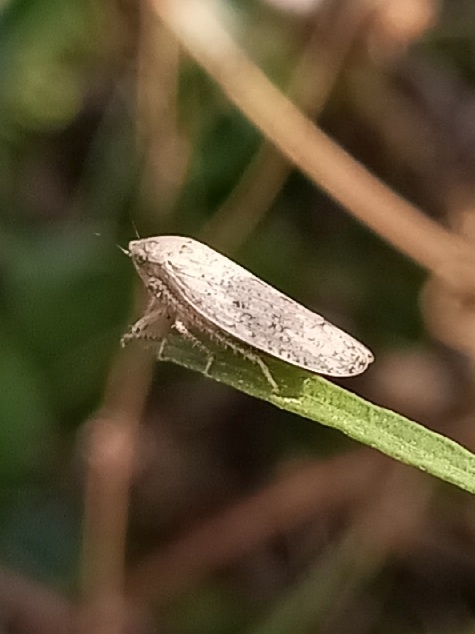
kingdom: Animalia
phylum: Arthropoda
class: Insecta
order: Hemiptera
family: Cicadellidae
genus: Curtara
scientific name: Curtara insularis
